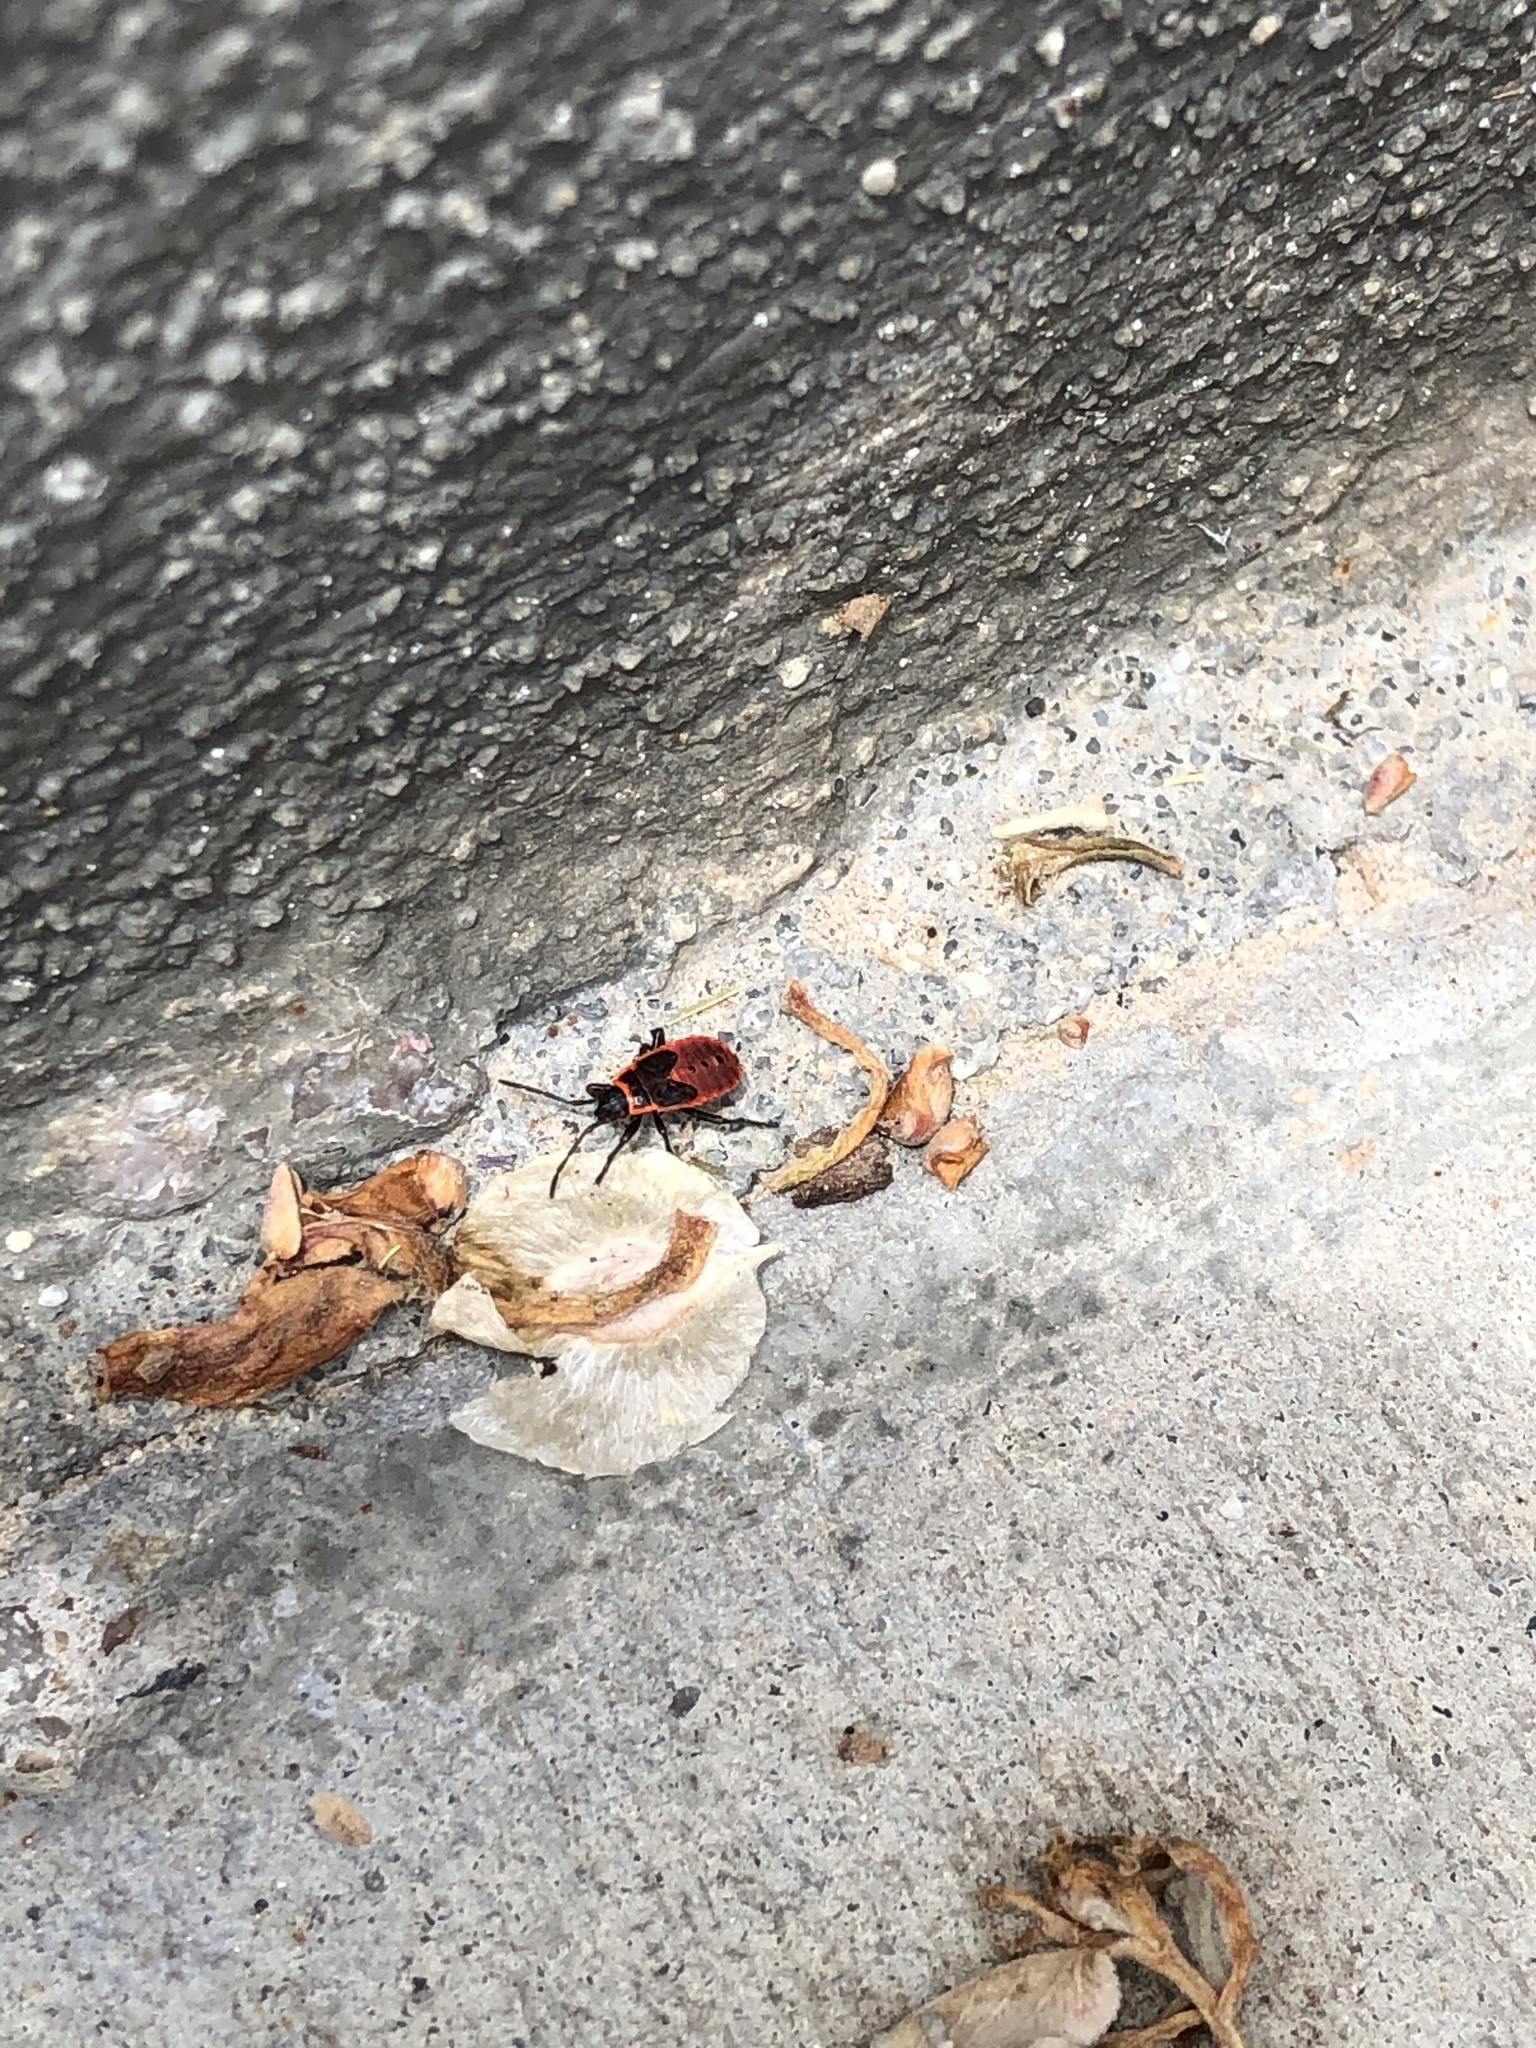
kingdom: Animalia
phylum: Arthropoda
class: Insecta
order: Hemiptera
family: Pyrrhocoridae
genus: Pyrrhocoris
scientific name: Pyrrhocoris apterus
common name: Firebug
